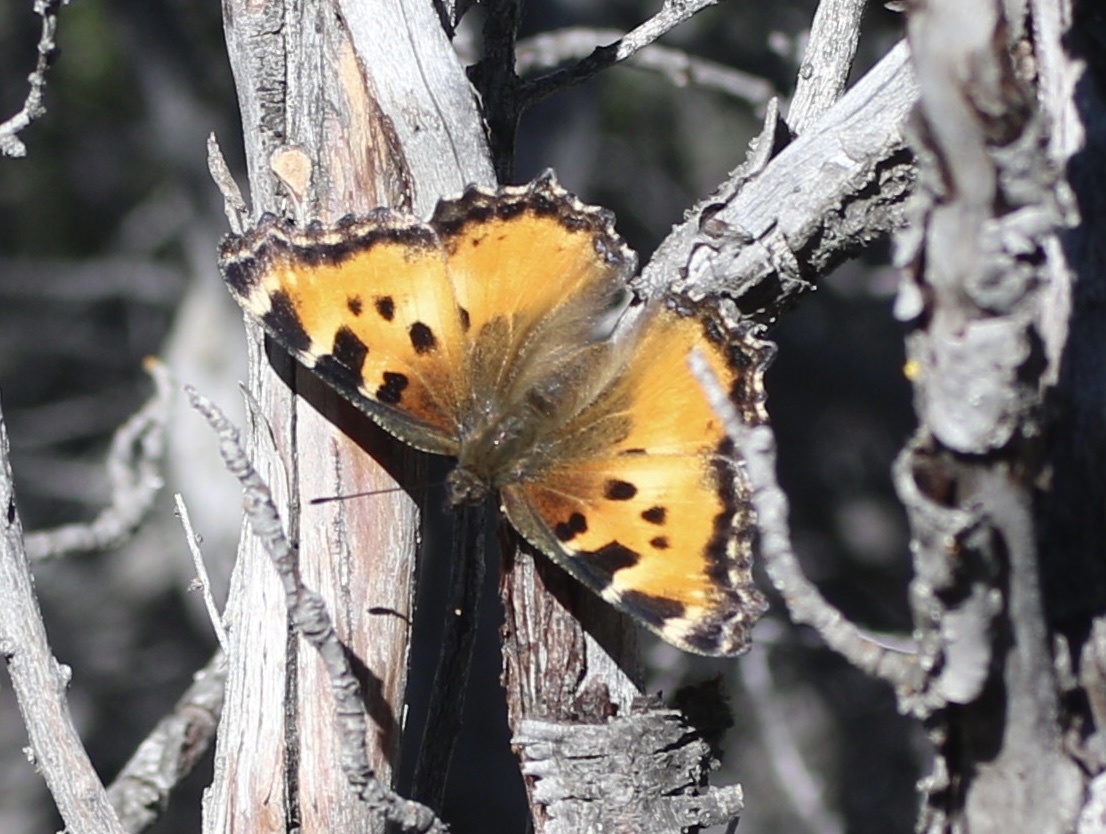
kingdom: Animalia
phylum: Arthropoda
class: Insecta
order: Lepidoptera
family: Nymphalidae
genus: Nymphalis
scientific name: Nymphalis californica
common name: California tortoiseshell
